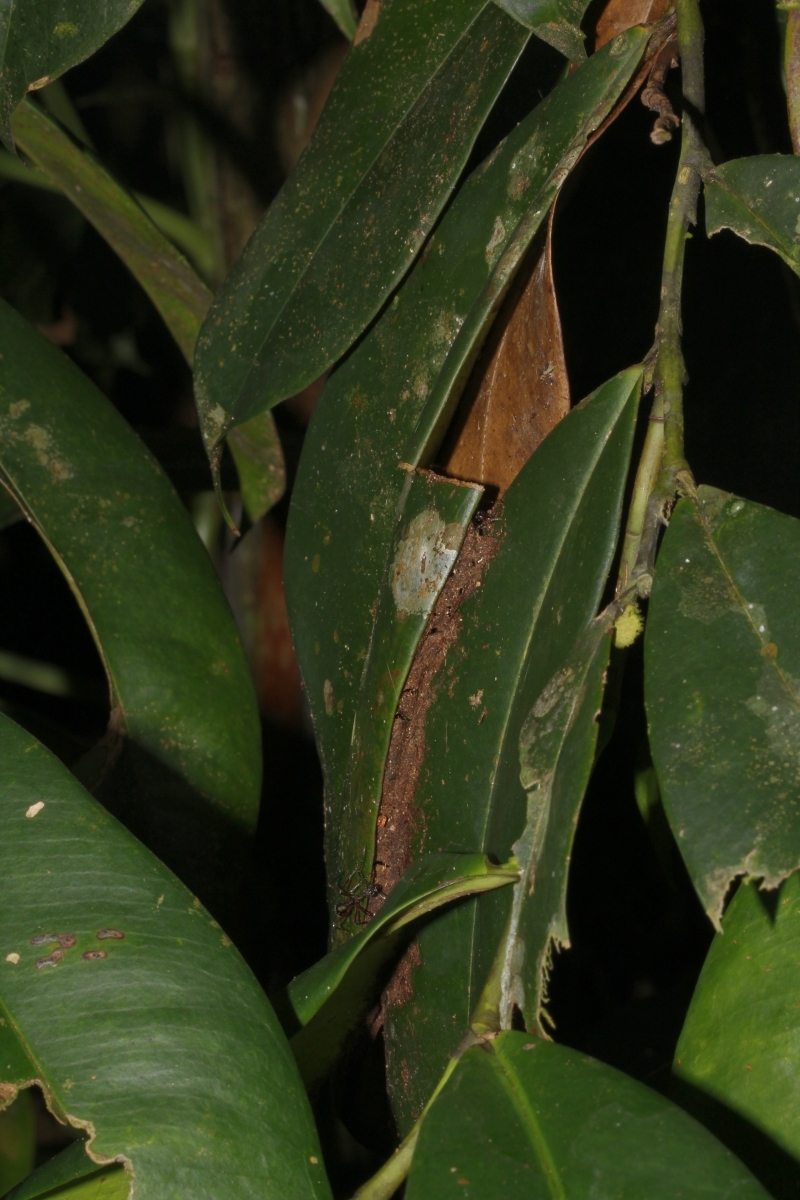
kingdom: Animalia
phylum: Arthropoda
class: Insecta
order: Hymenoptera
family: Formicidae
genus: Dolichoderus
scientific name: Dolichoderus longicollis
